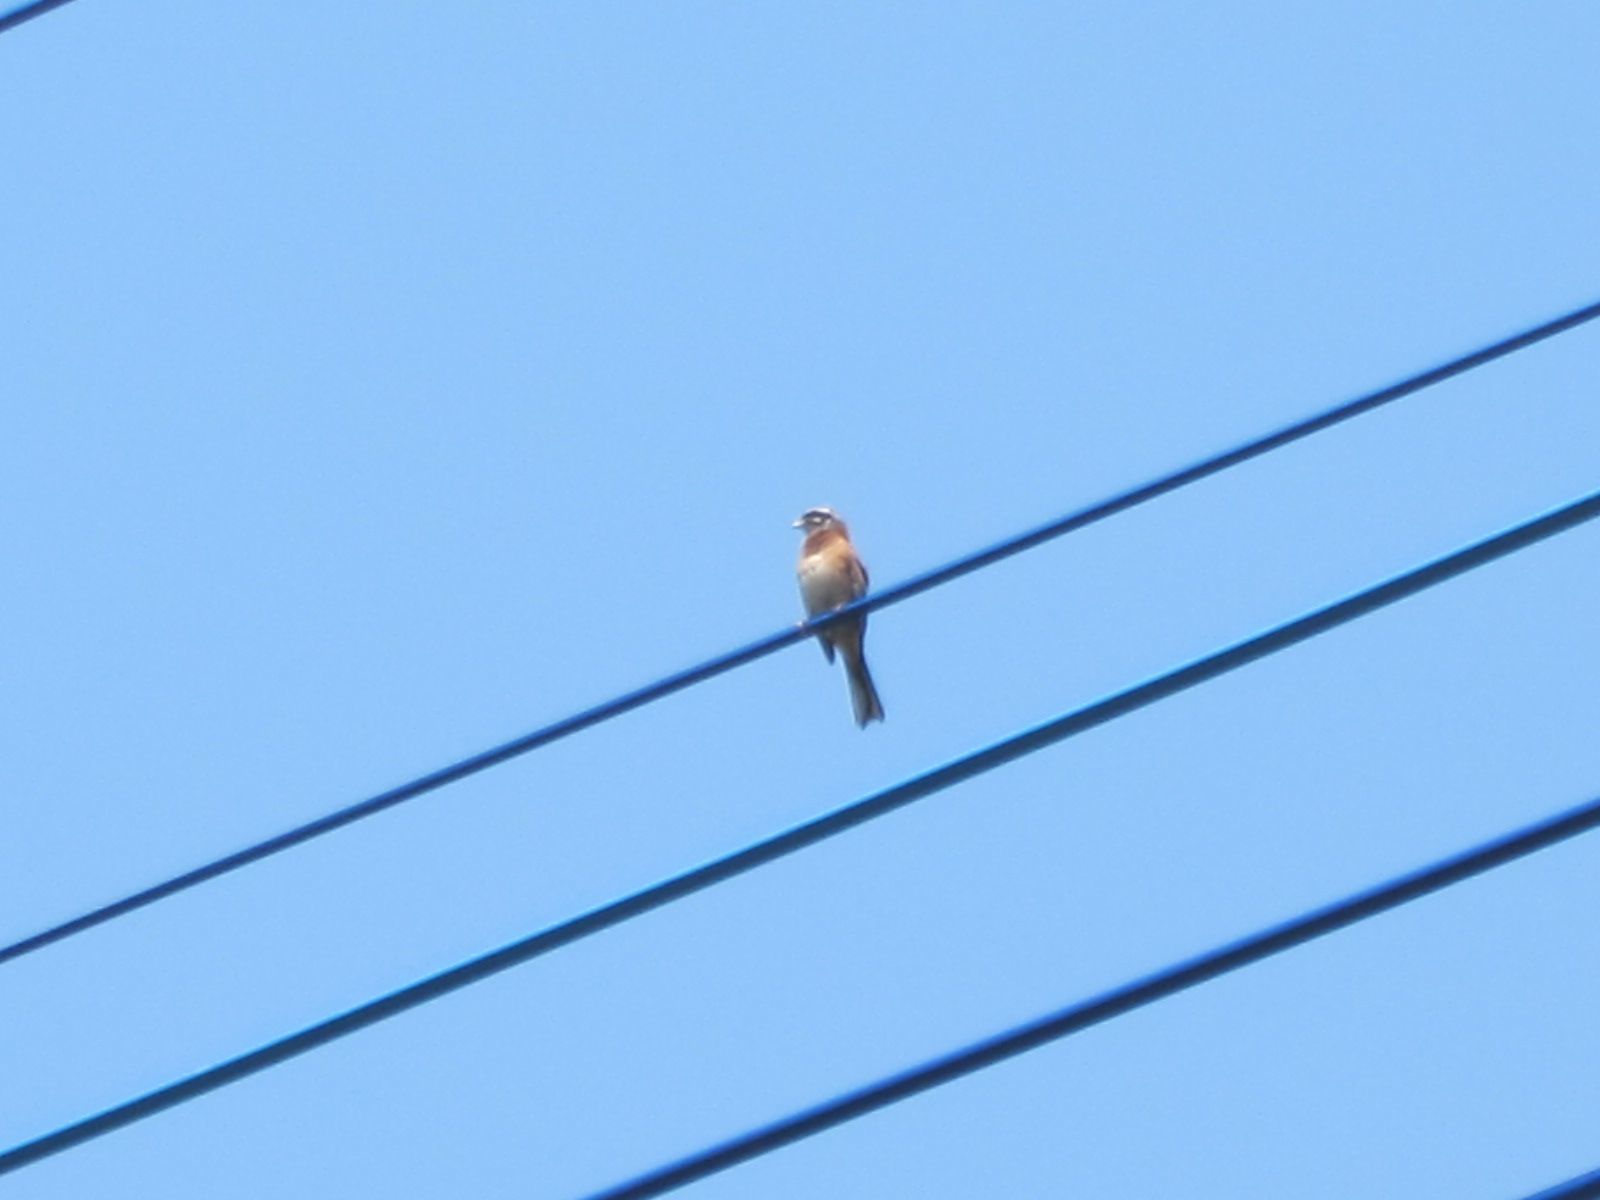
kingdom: Animalia
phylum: Chordata
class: Aves
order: Passeriformes
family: Emberizidae
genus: Emberiza
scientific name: Emberiza cioides
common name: Meadow bunting
